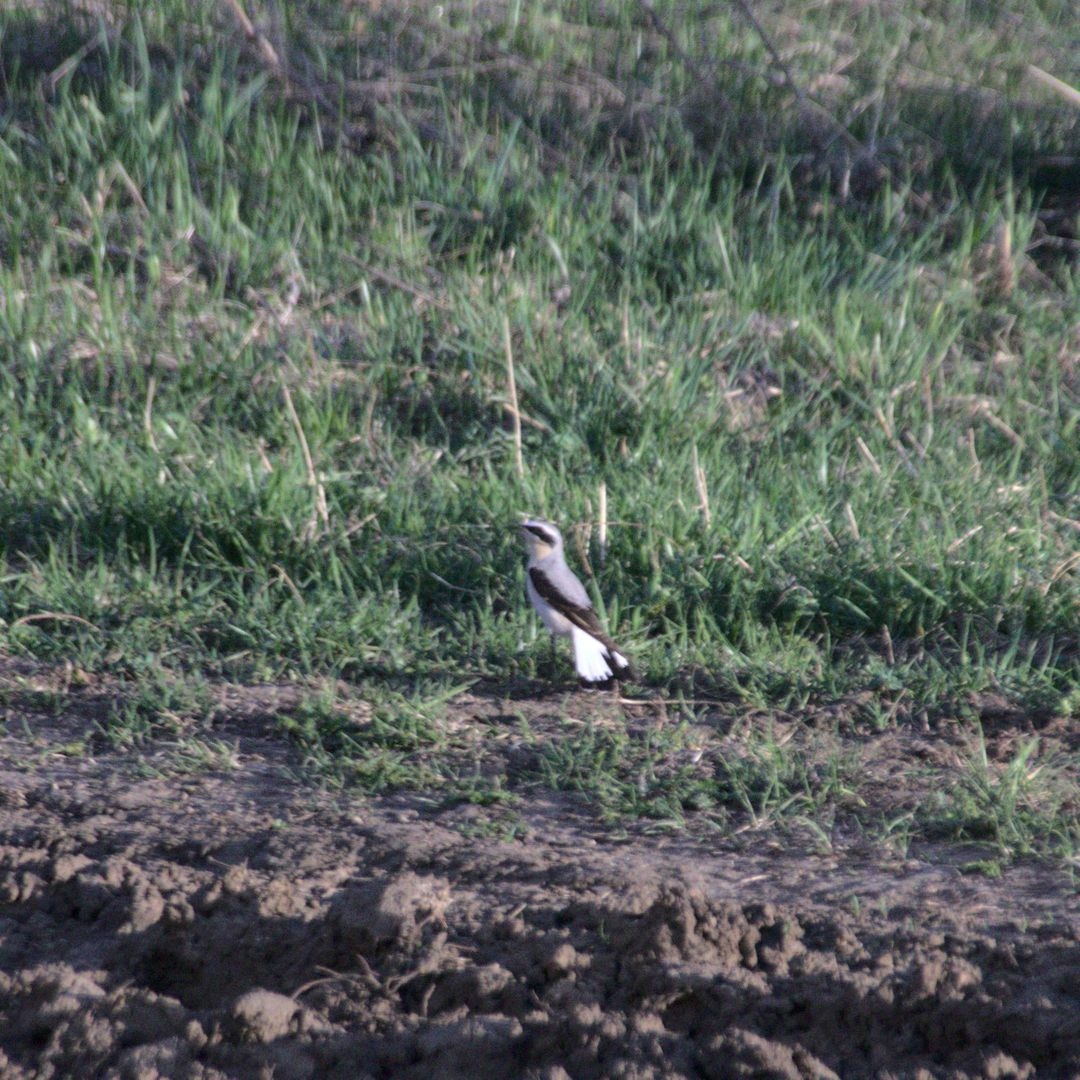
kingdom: Animalia
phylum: Chordata
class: Aves
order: Passeriformes
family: Muscicapidae
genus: Oenanthe
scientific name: Oenanthe oenanthe
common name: Northern wheatear
